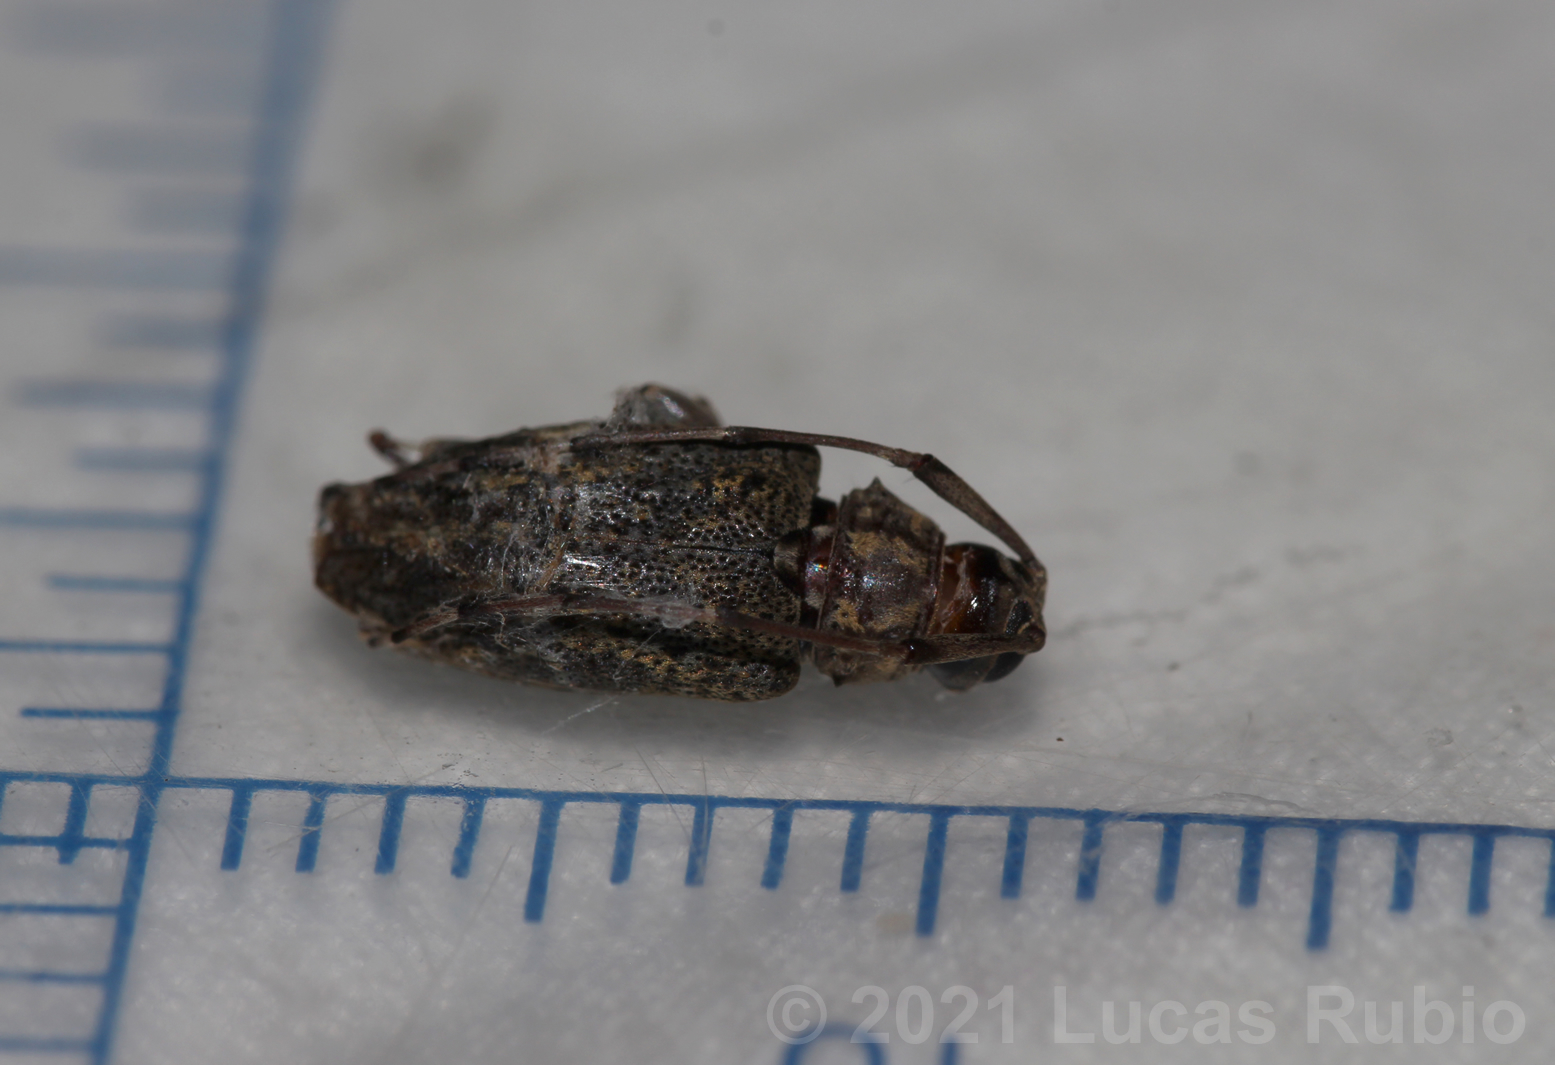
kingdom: Animalia
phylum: Arthropoda
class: Insecta
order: Coleoptera
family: Cerambycidae
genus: Nyssodrysina
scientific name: Nyssodrysina lignaria
